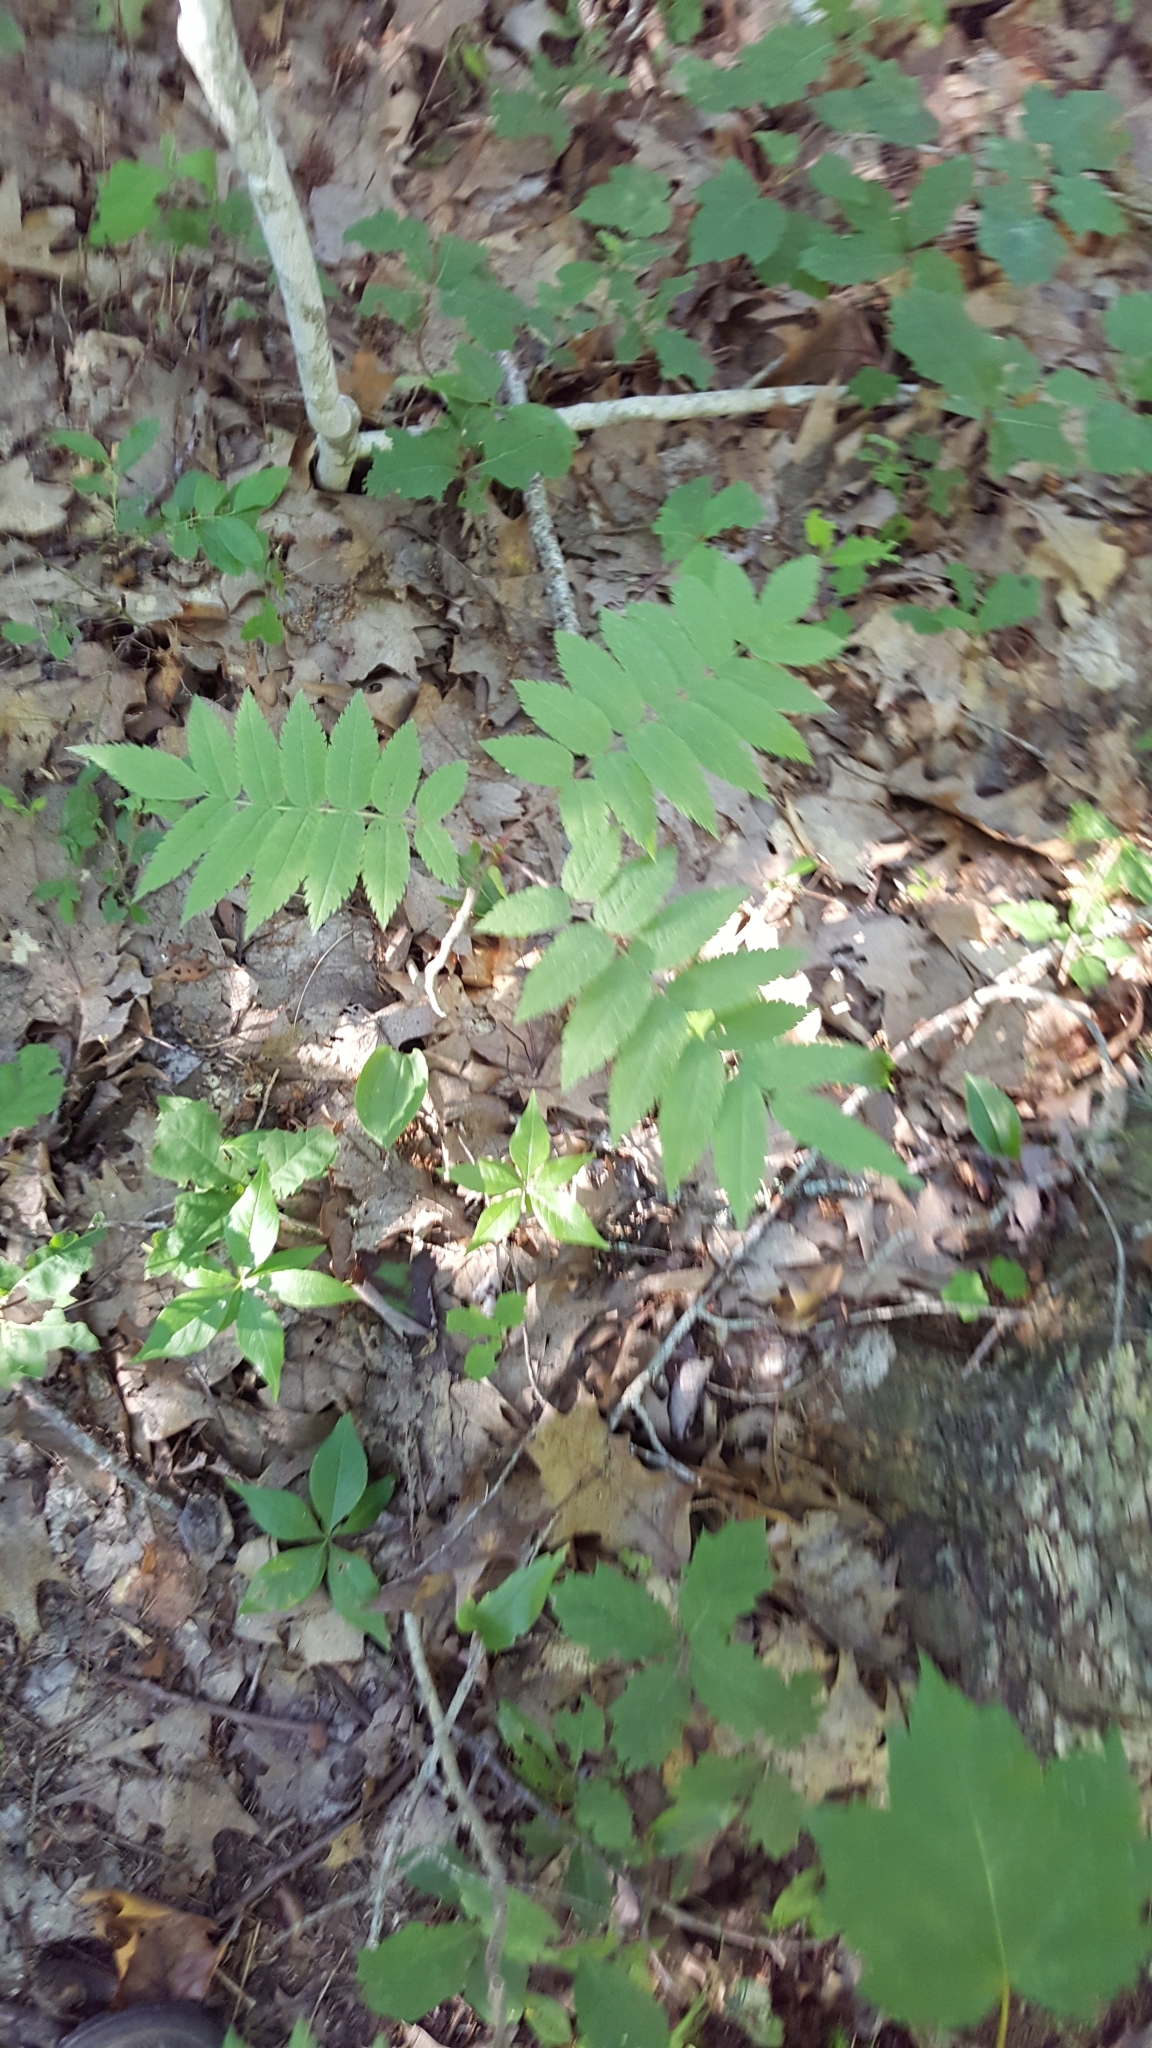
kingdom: Plantae
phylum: Tracheophyta
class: Magnoliopsida
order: Rosales
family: Rosaceae
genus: Sorbus
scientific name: Sorbus americana
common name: American mountain-ash
